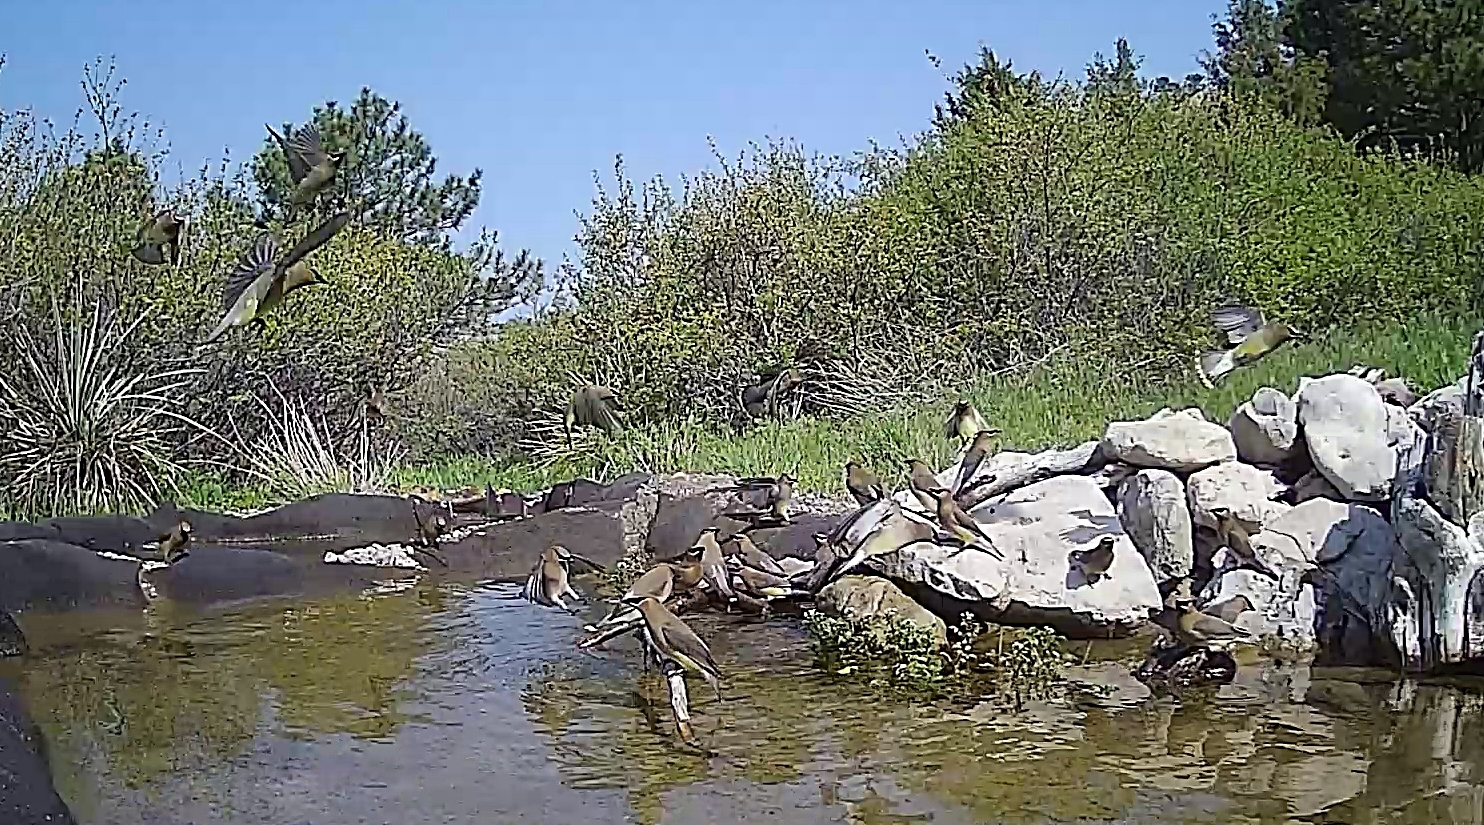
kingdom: Animalia
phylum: Chordata
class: Aves
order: Passeriformes
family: Bombycillidae
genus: Bombycilla
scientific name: Bombycilla cedrorum
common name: Cedar waxwing
